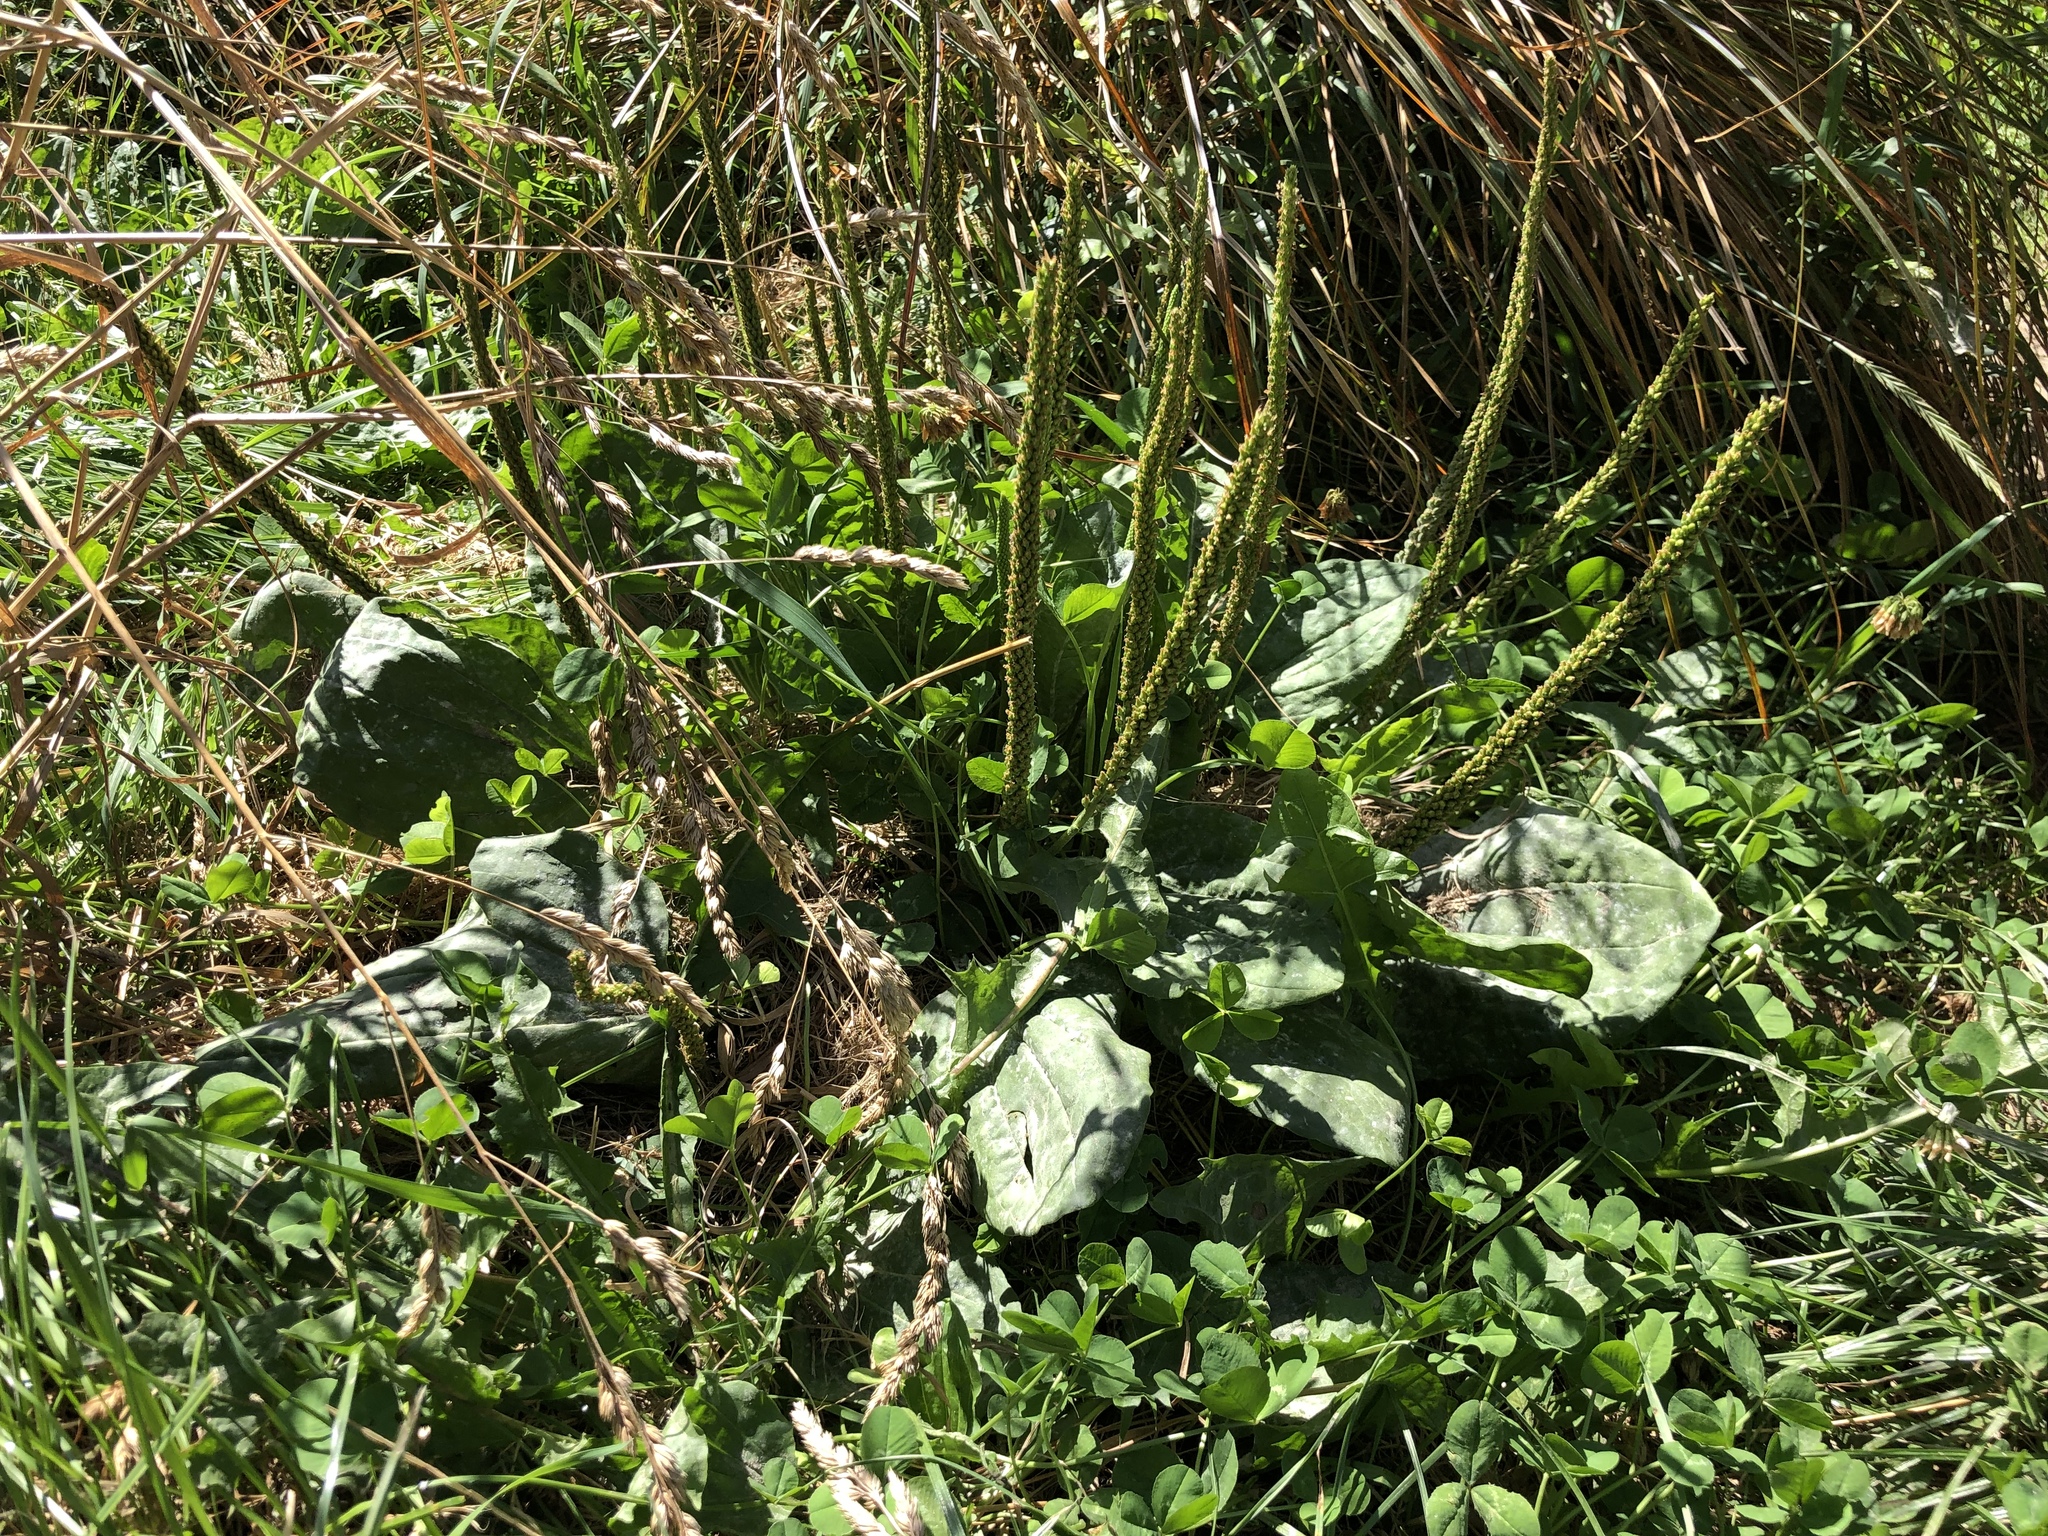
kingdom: Plantae
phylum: Tracheophyta
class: Magnoliopsida
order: Lamiales
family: Plantaginaceae
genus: Plantago
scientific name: Plantago major
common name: Common plantain
